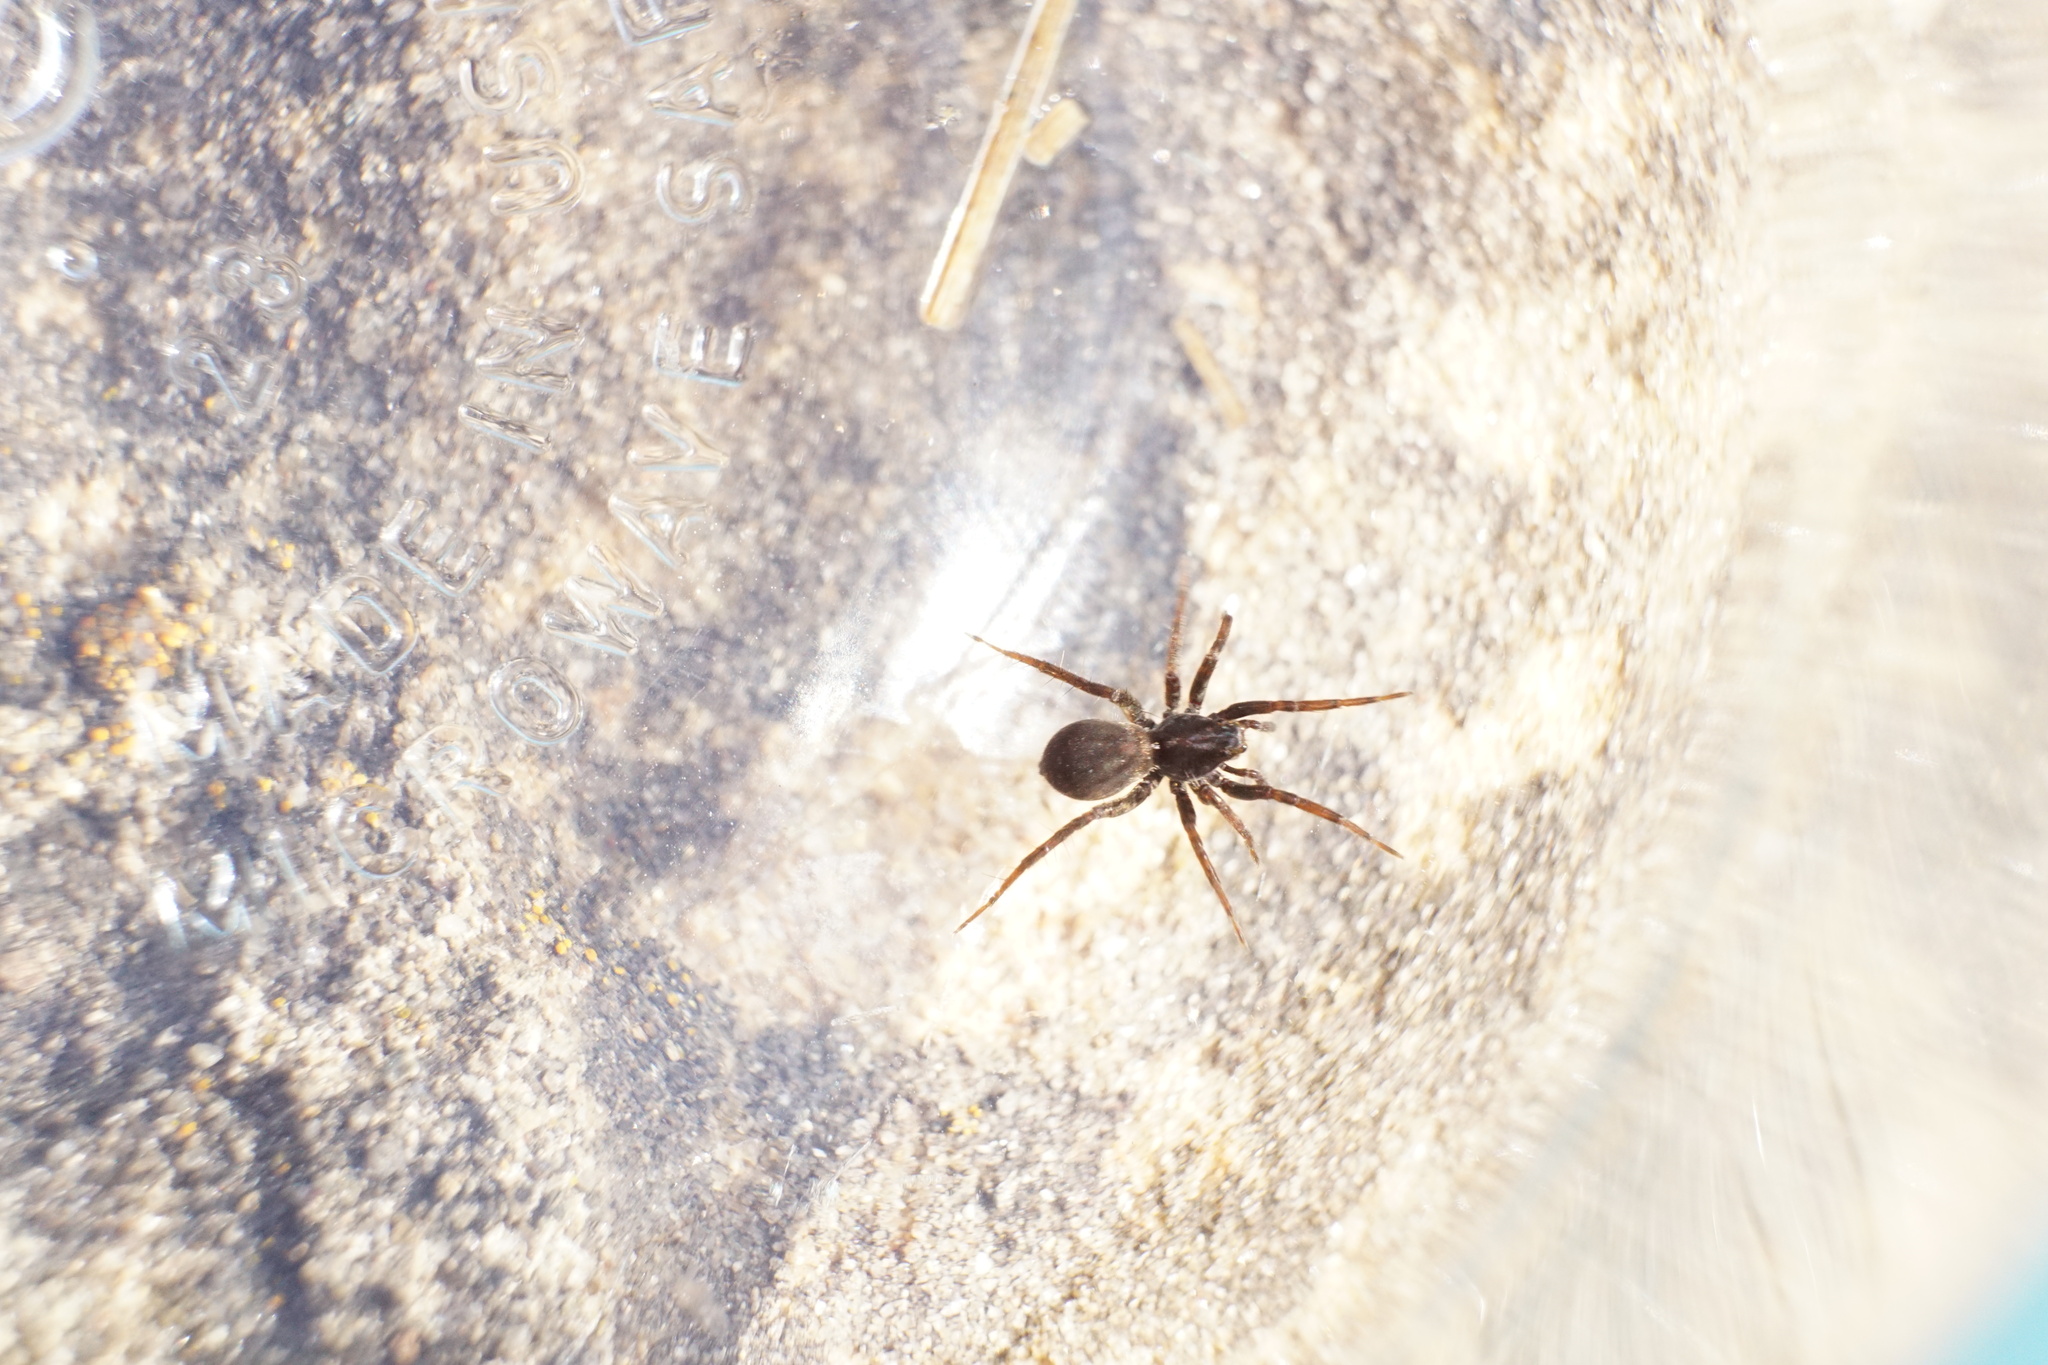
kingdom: Animalia
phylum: Arthropoda
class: Arachnida
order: Araneae
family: Lycosidae
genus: Pardosa
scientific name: Pardosa milvina
